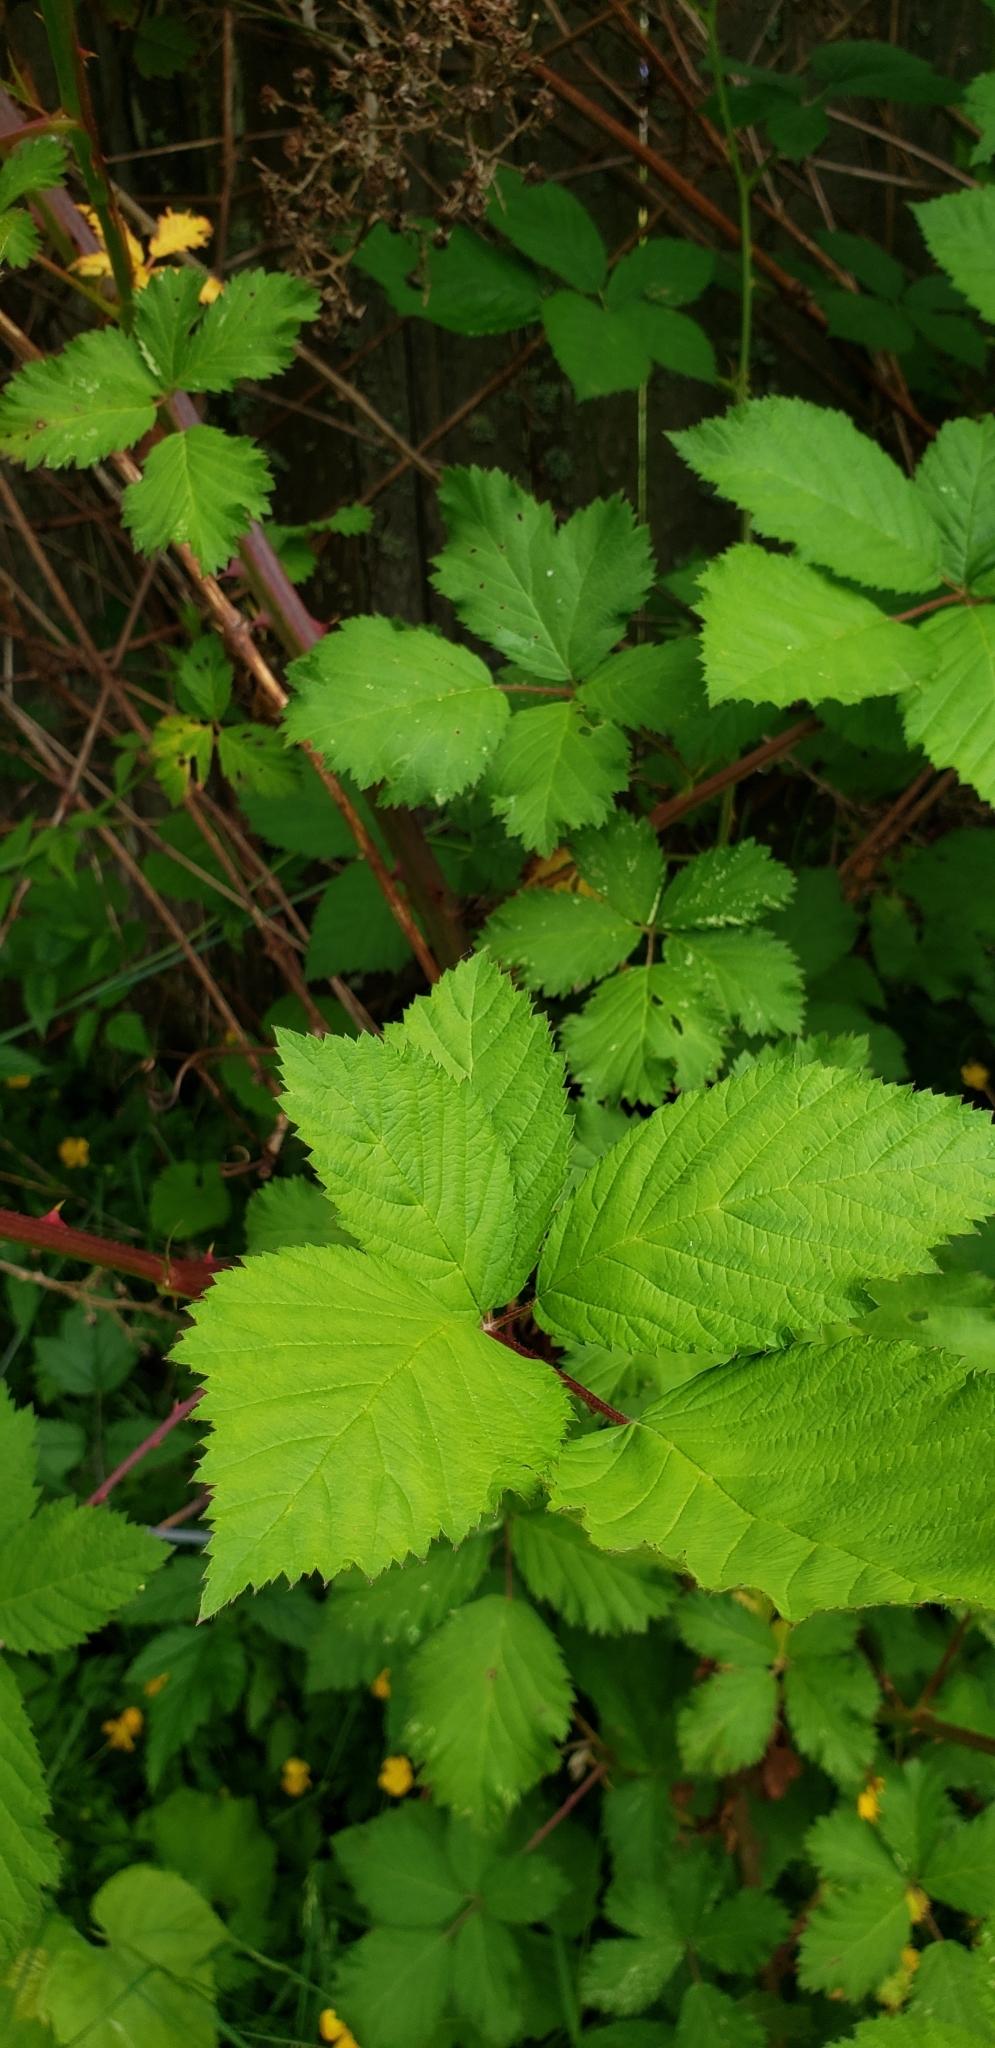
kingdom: Plantae
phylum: Tracheophyta
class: Magnoliopsida
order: Rosales
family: Rosaceae
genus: Rubus
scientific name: Rubus bifrons
